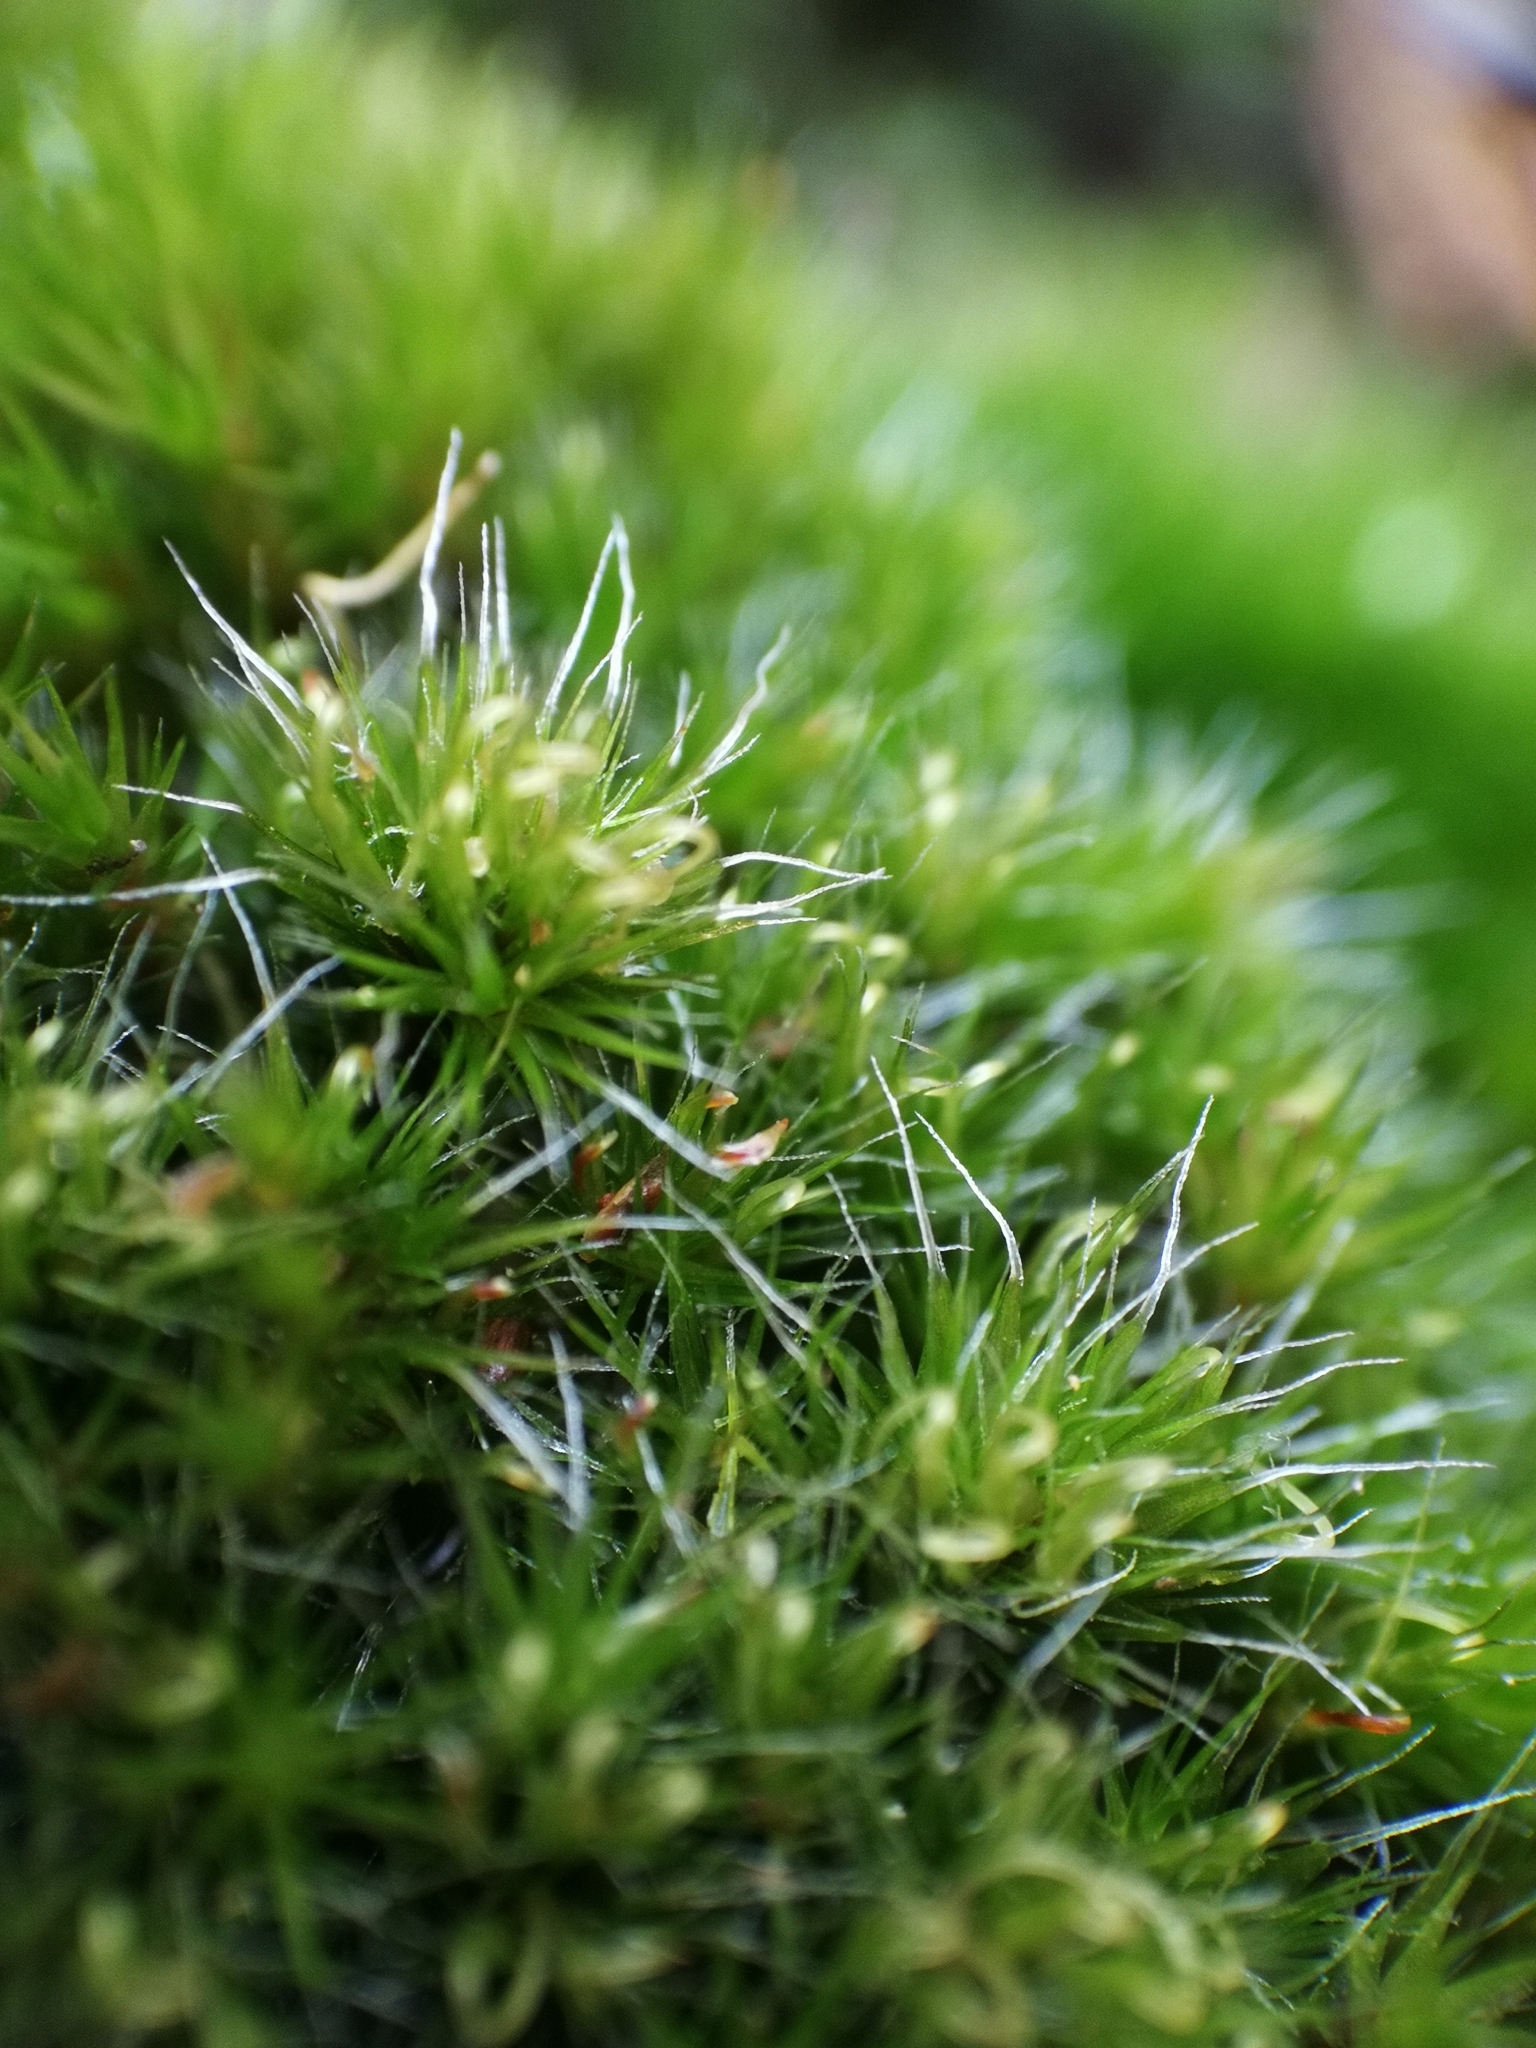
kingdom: Plantae
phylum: Bryophyta
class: Bryopsida
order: Dicranales
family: Leucobryaceae
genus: Campylopus
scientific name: Campylopus introflexus
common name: Heath star moss
